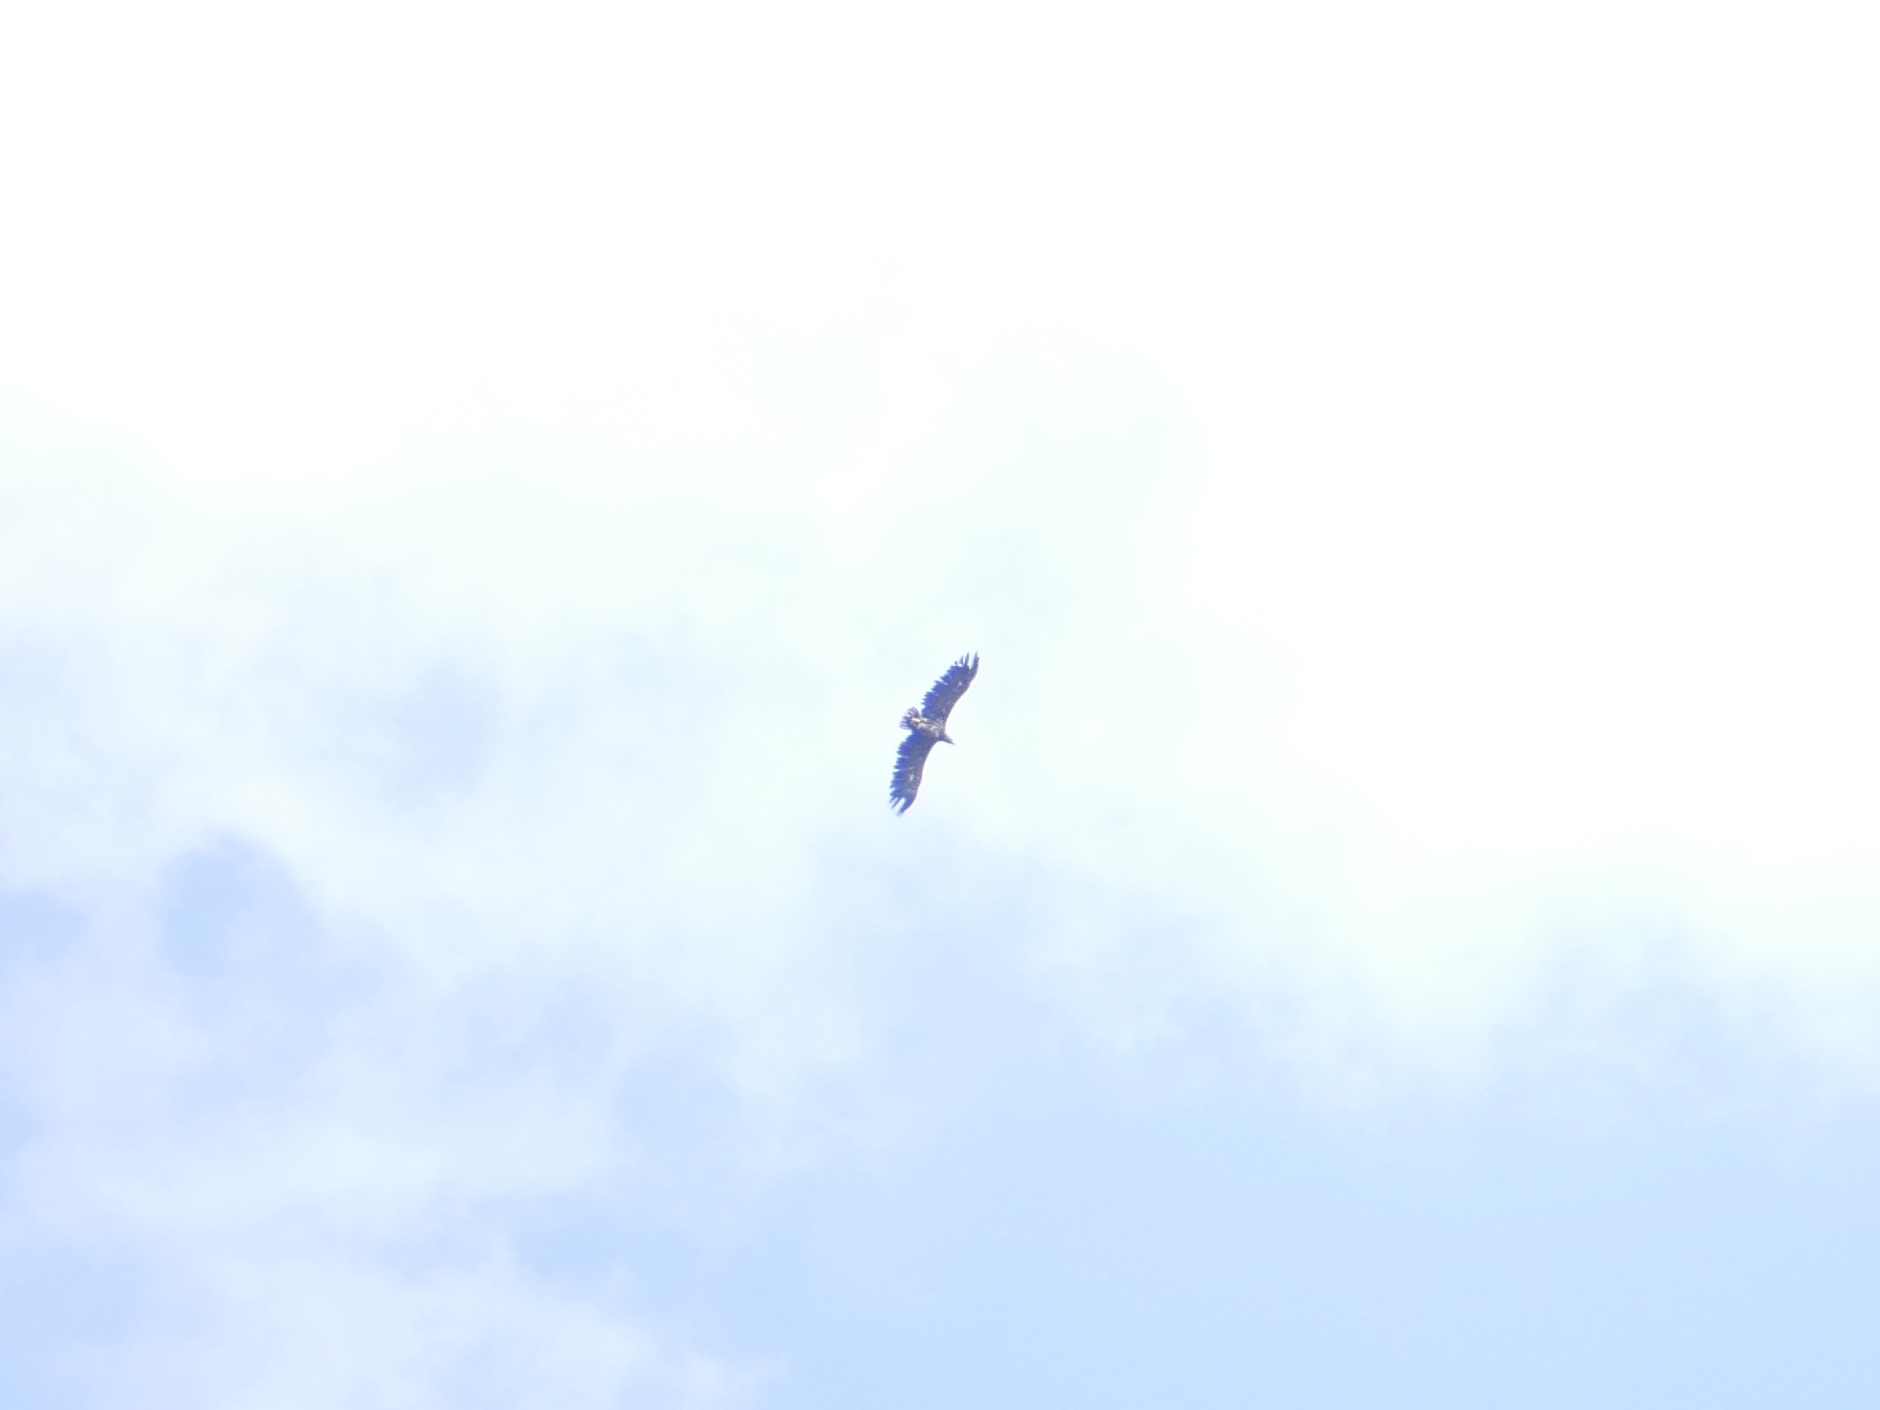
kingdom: Animalia
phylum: Chordata
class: Aves
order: Accipitriformes
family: Accipitridae
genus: Haliaeetus
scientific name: Haliaeetus albicilla
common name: White-tailed eagle
